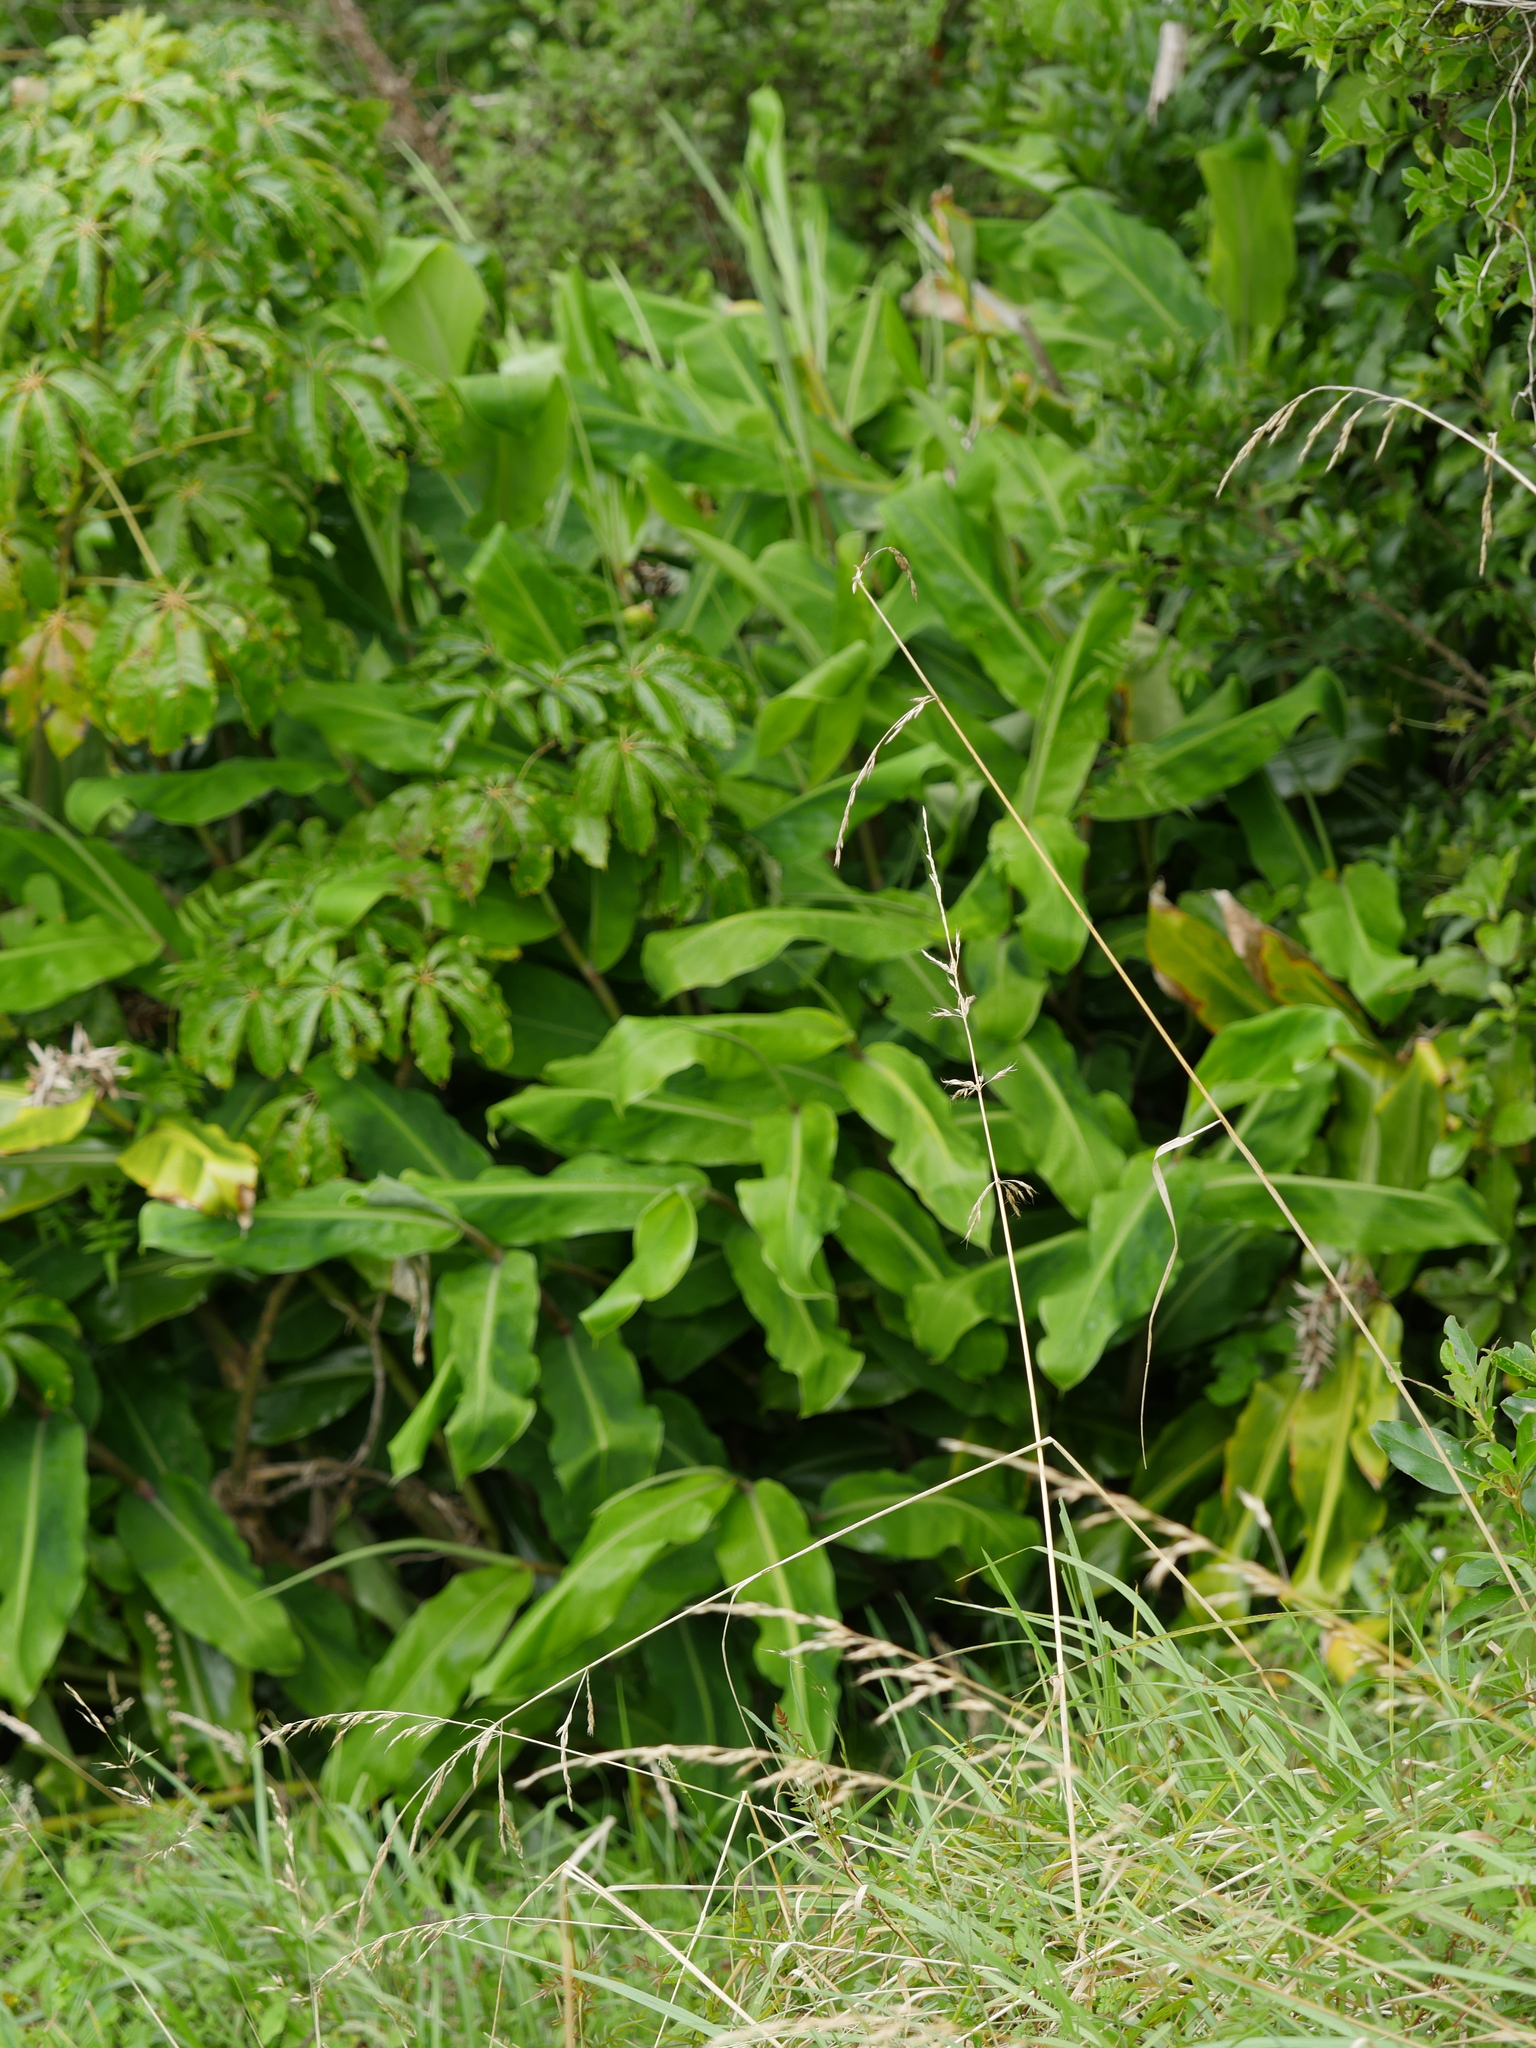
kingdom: Plantae
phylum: Tracheophyta
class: Liliopsida
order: Zingiberales
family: Zingiberaceae
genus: Hedychium
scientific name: Hedychium gardnerianum
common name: Himalayan ginger
